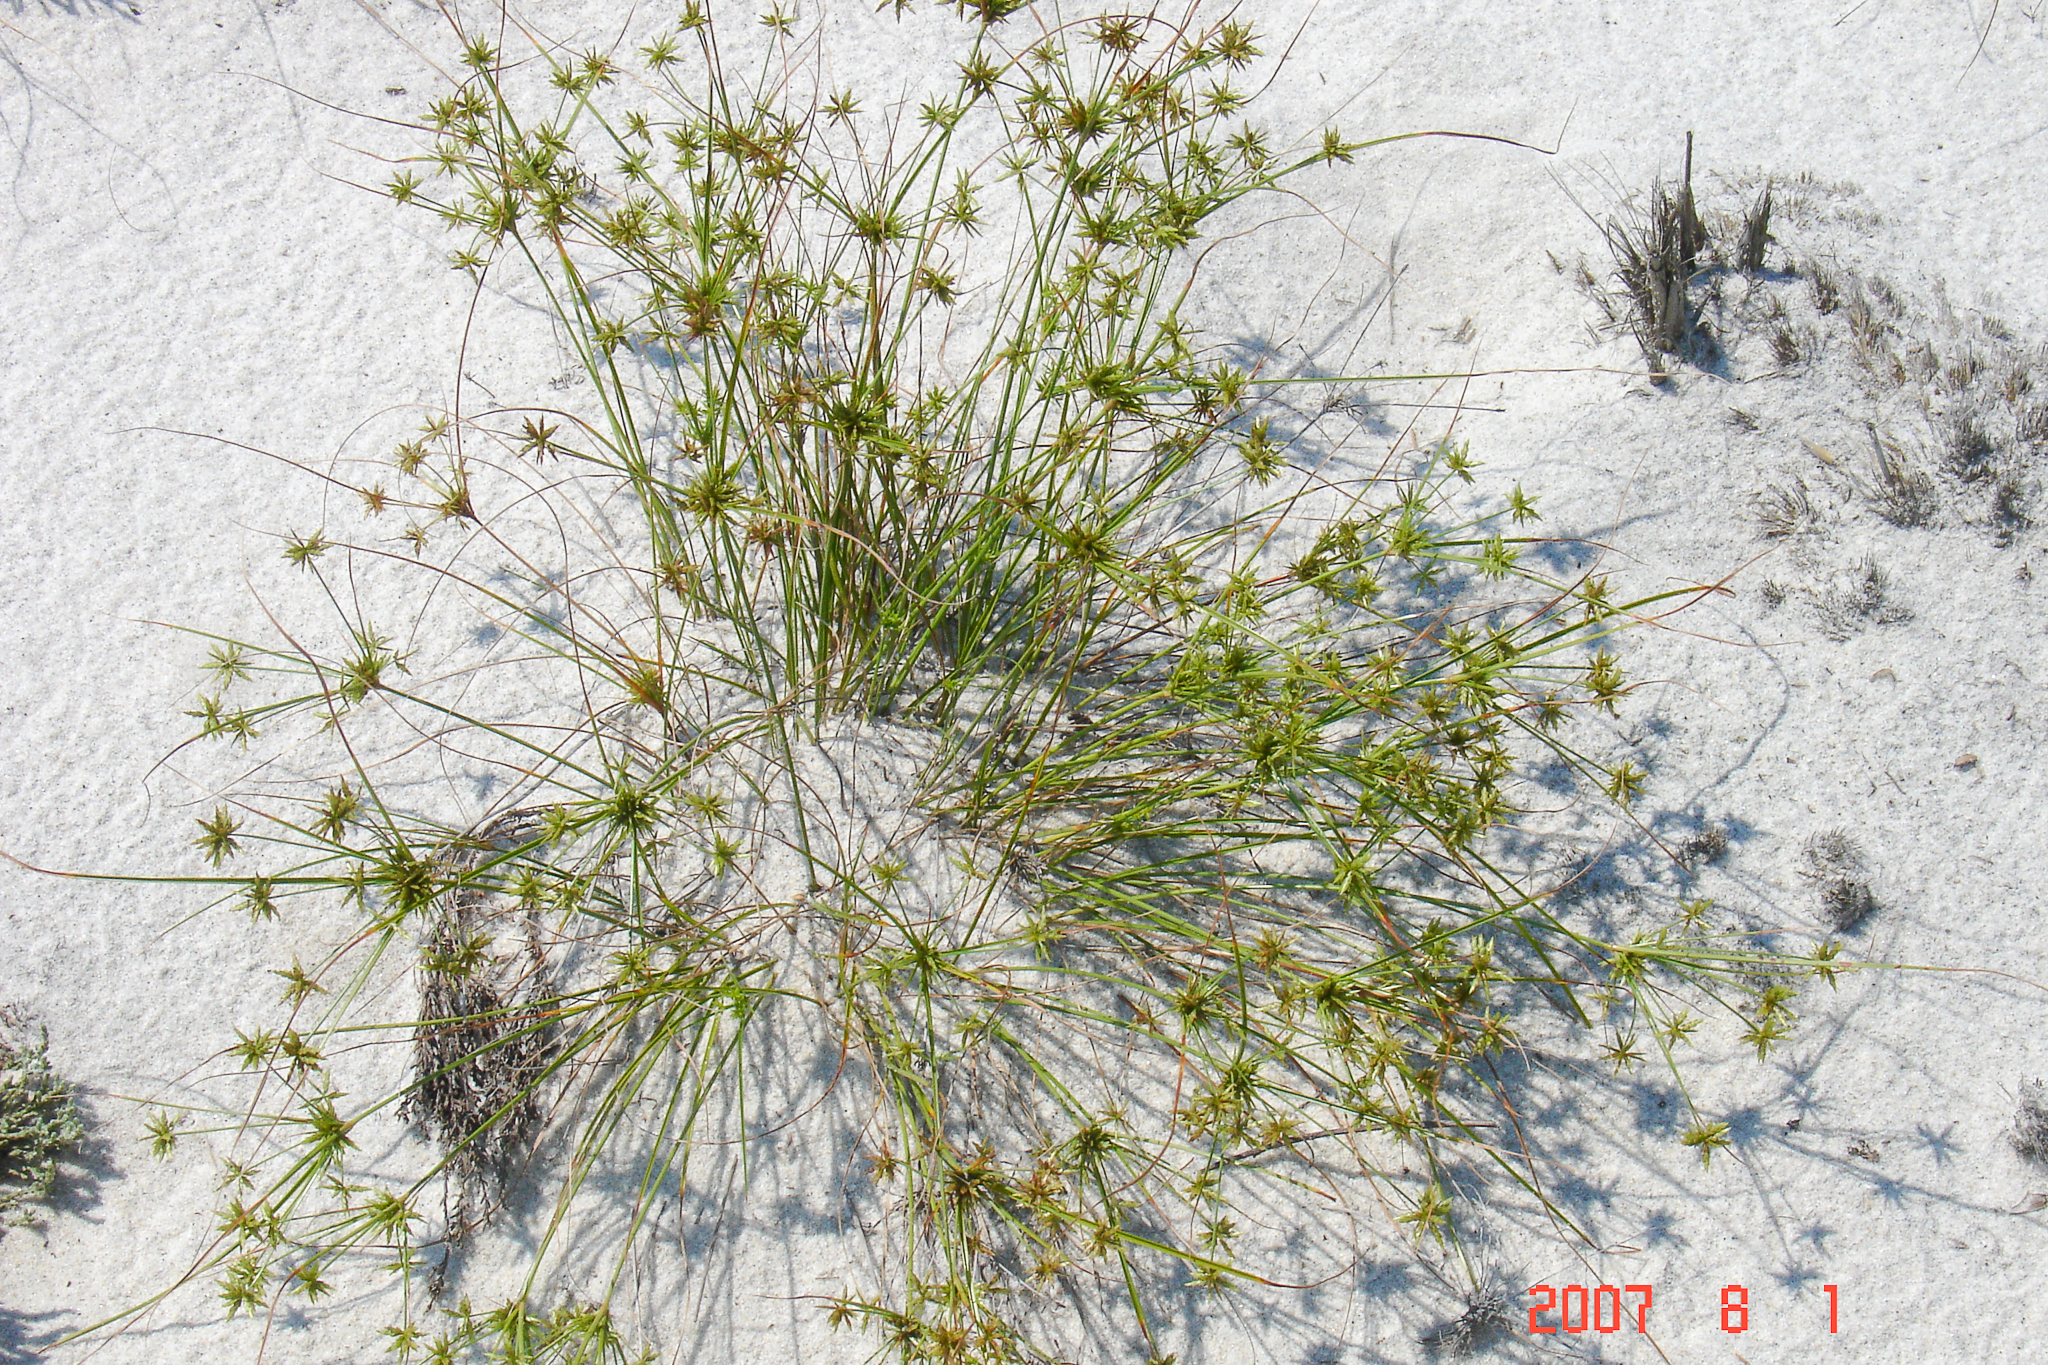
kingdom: Plantae
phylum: Tracheophyta
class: Liliopsida
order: Poales
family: Cyperaceae
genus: Cyperus
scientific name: Cyperus grayi
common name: Gray's flat sedge
